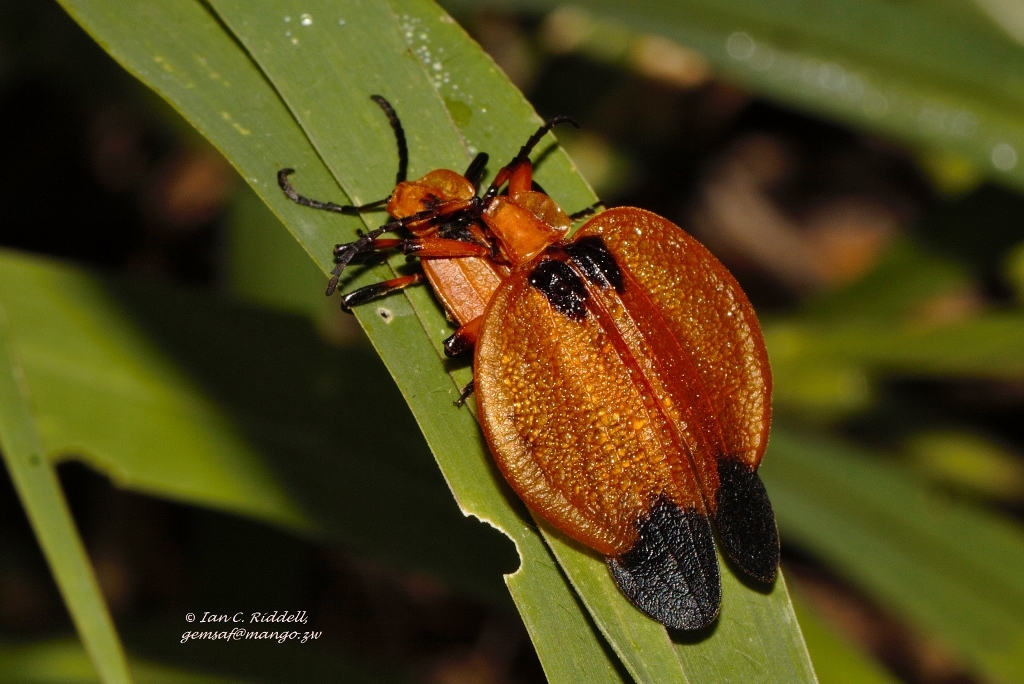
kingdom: Animalia
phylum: Arthropoda
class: Insecta
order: Coleoptera
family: Lycidae
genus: Lycus
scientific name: Lycus
